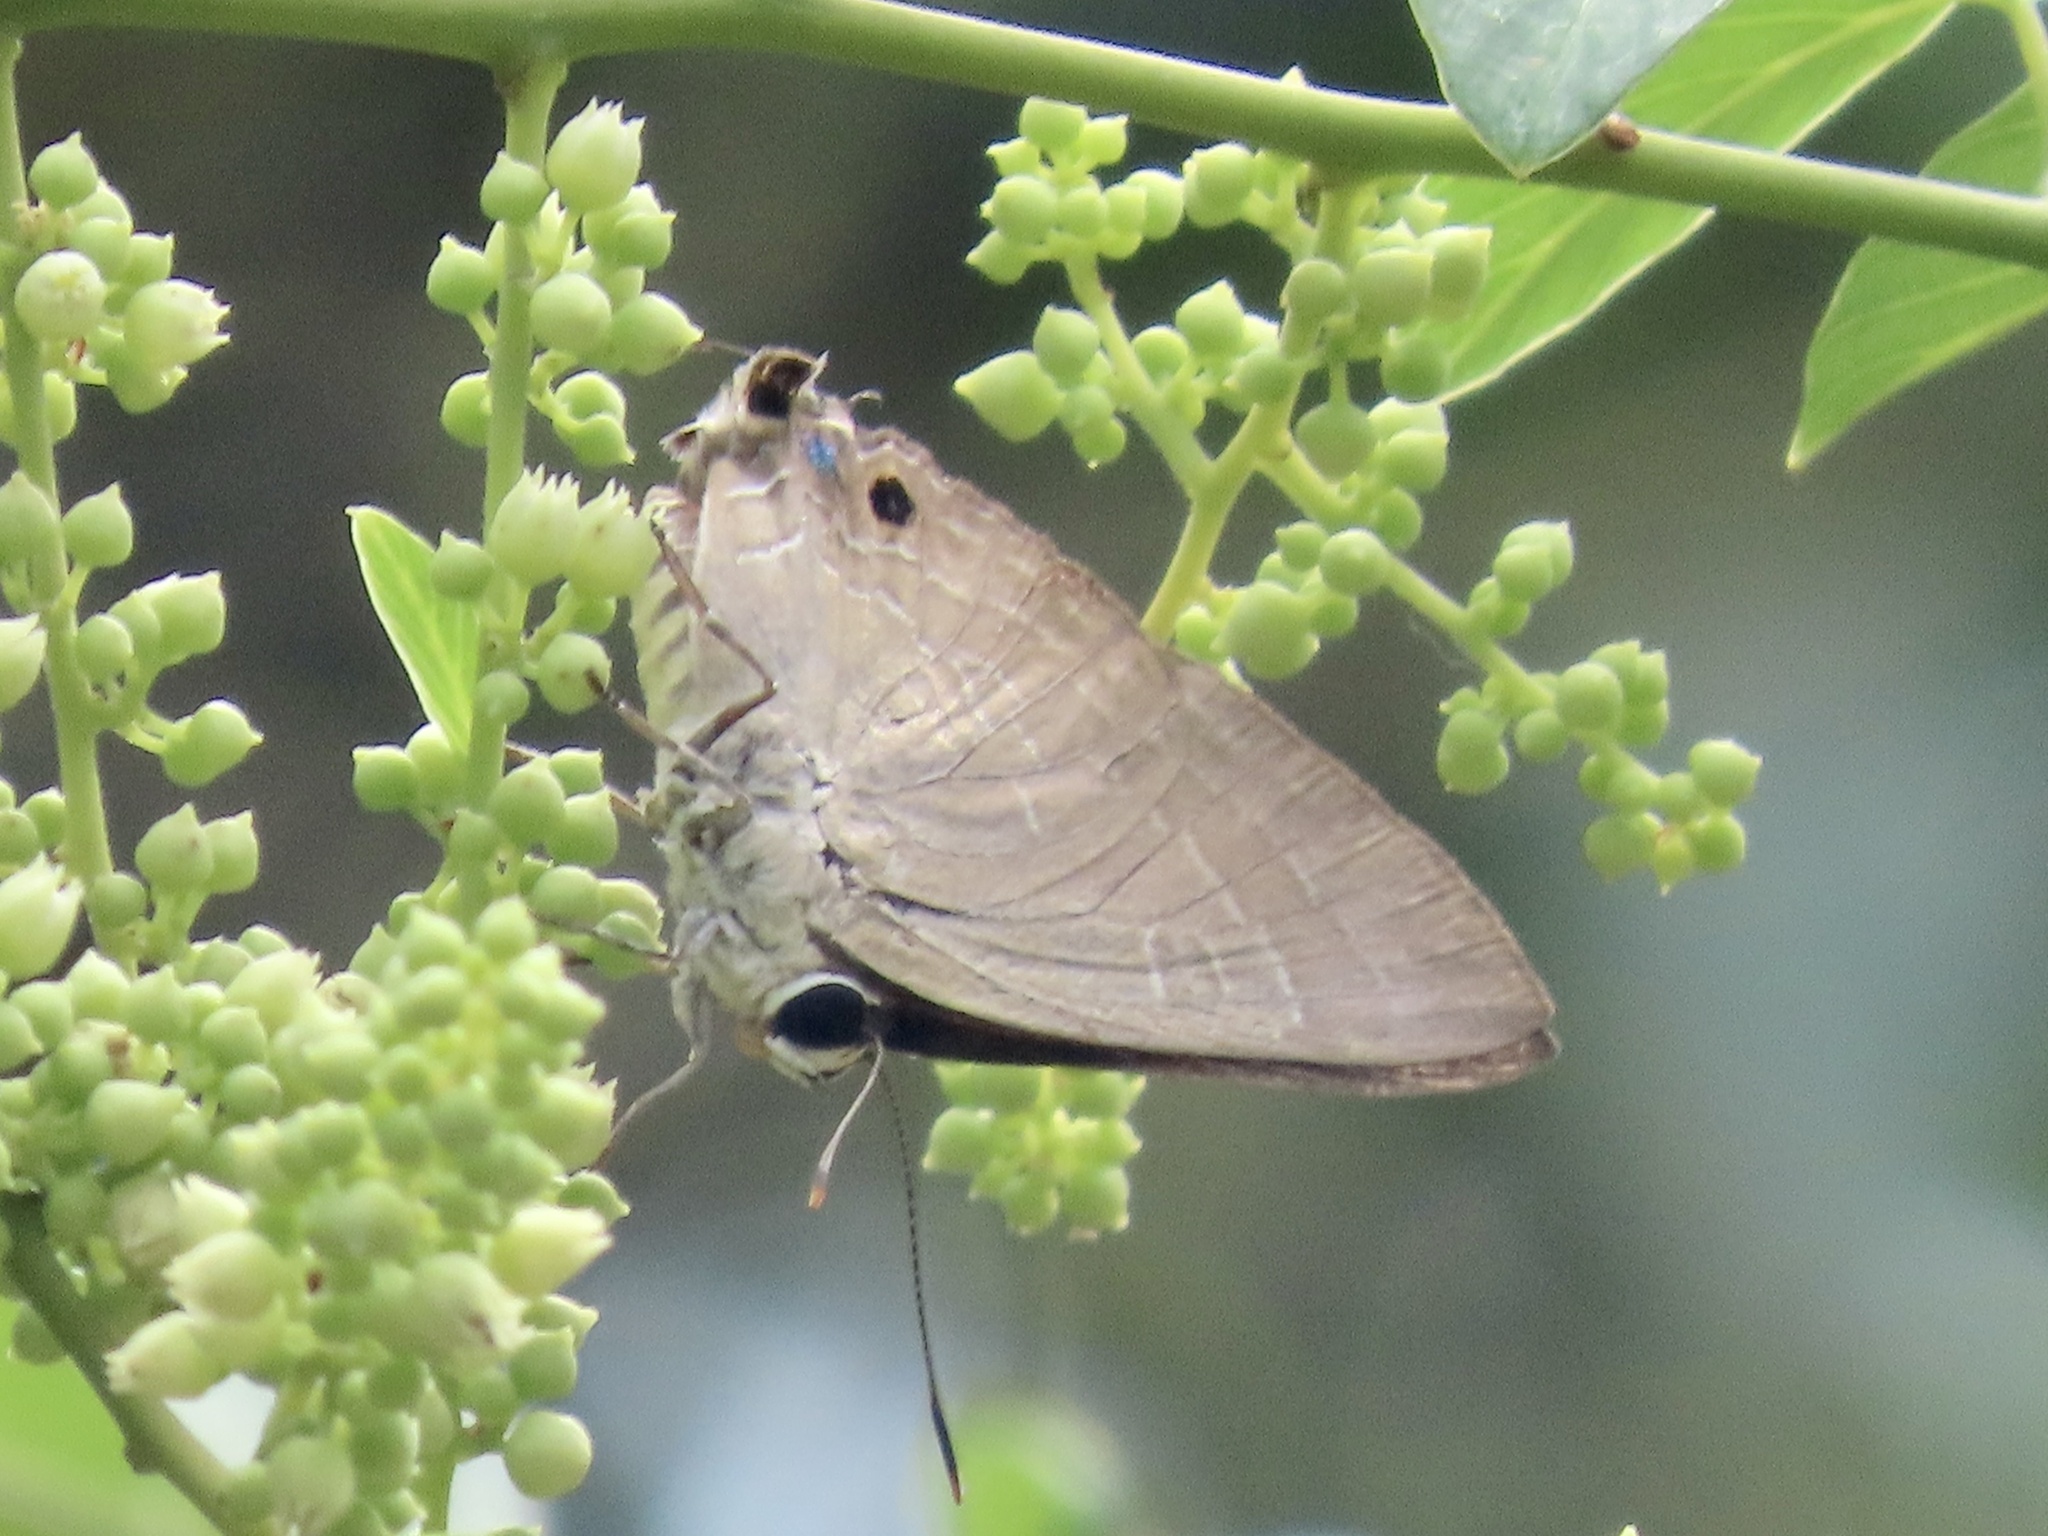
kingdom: Animalia
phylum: Arthropoda
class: Insecta
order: Lepidoptera
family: Lycaenidae
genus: Deudorix
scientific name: Deudorix epijarbas
